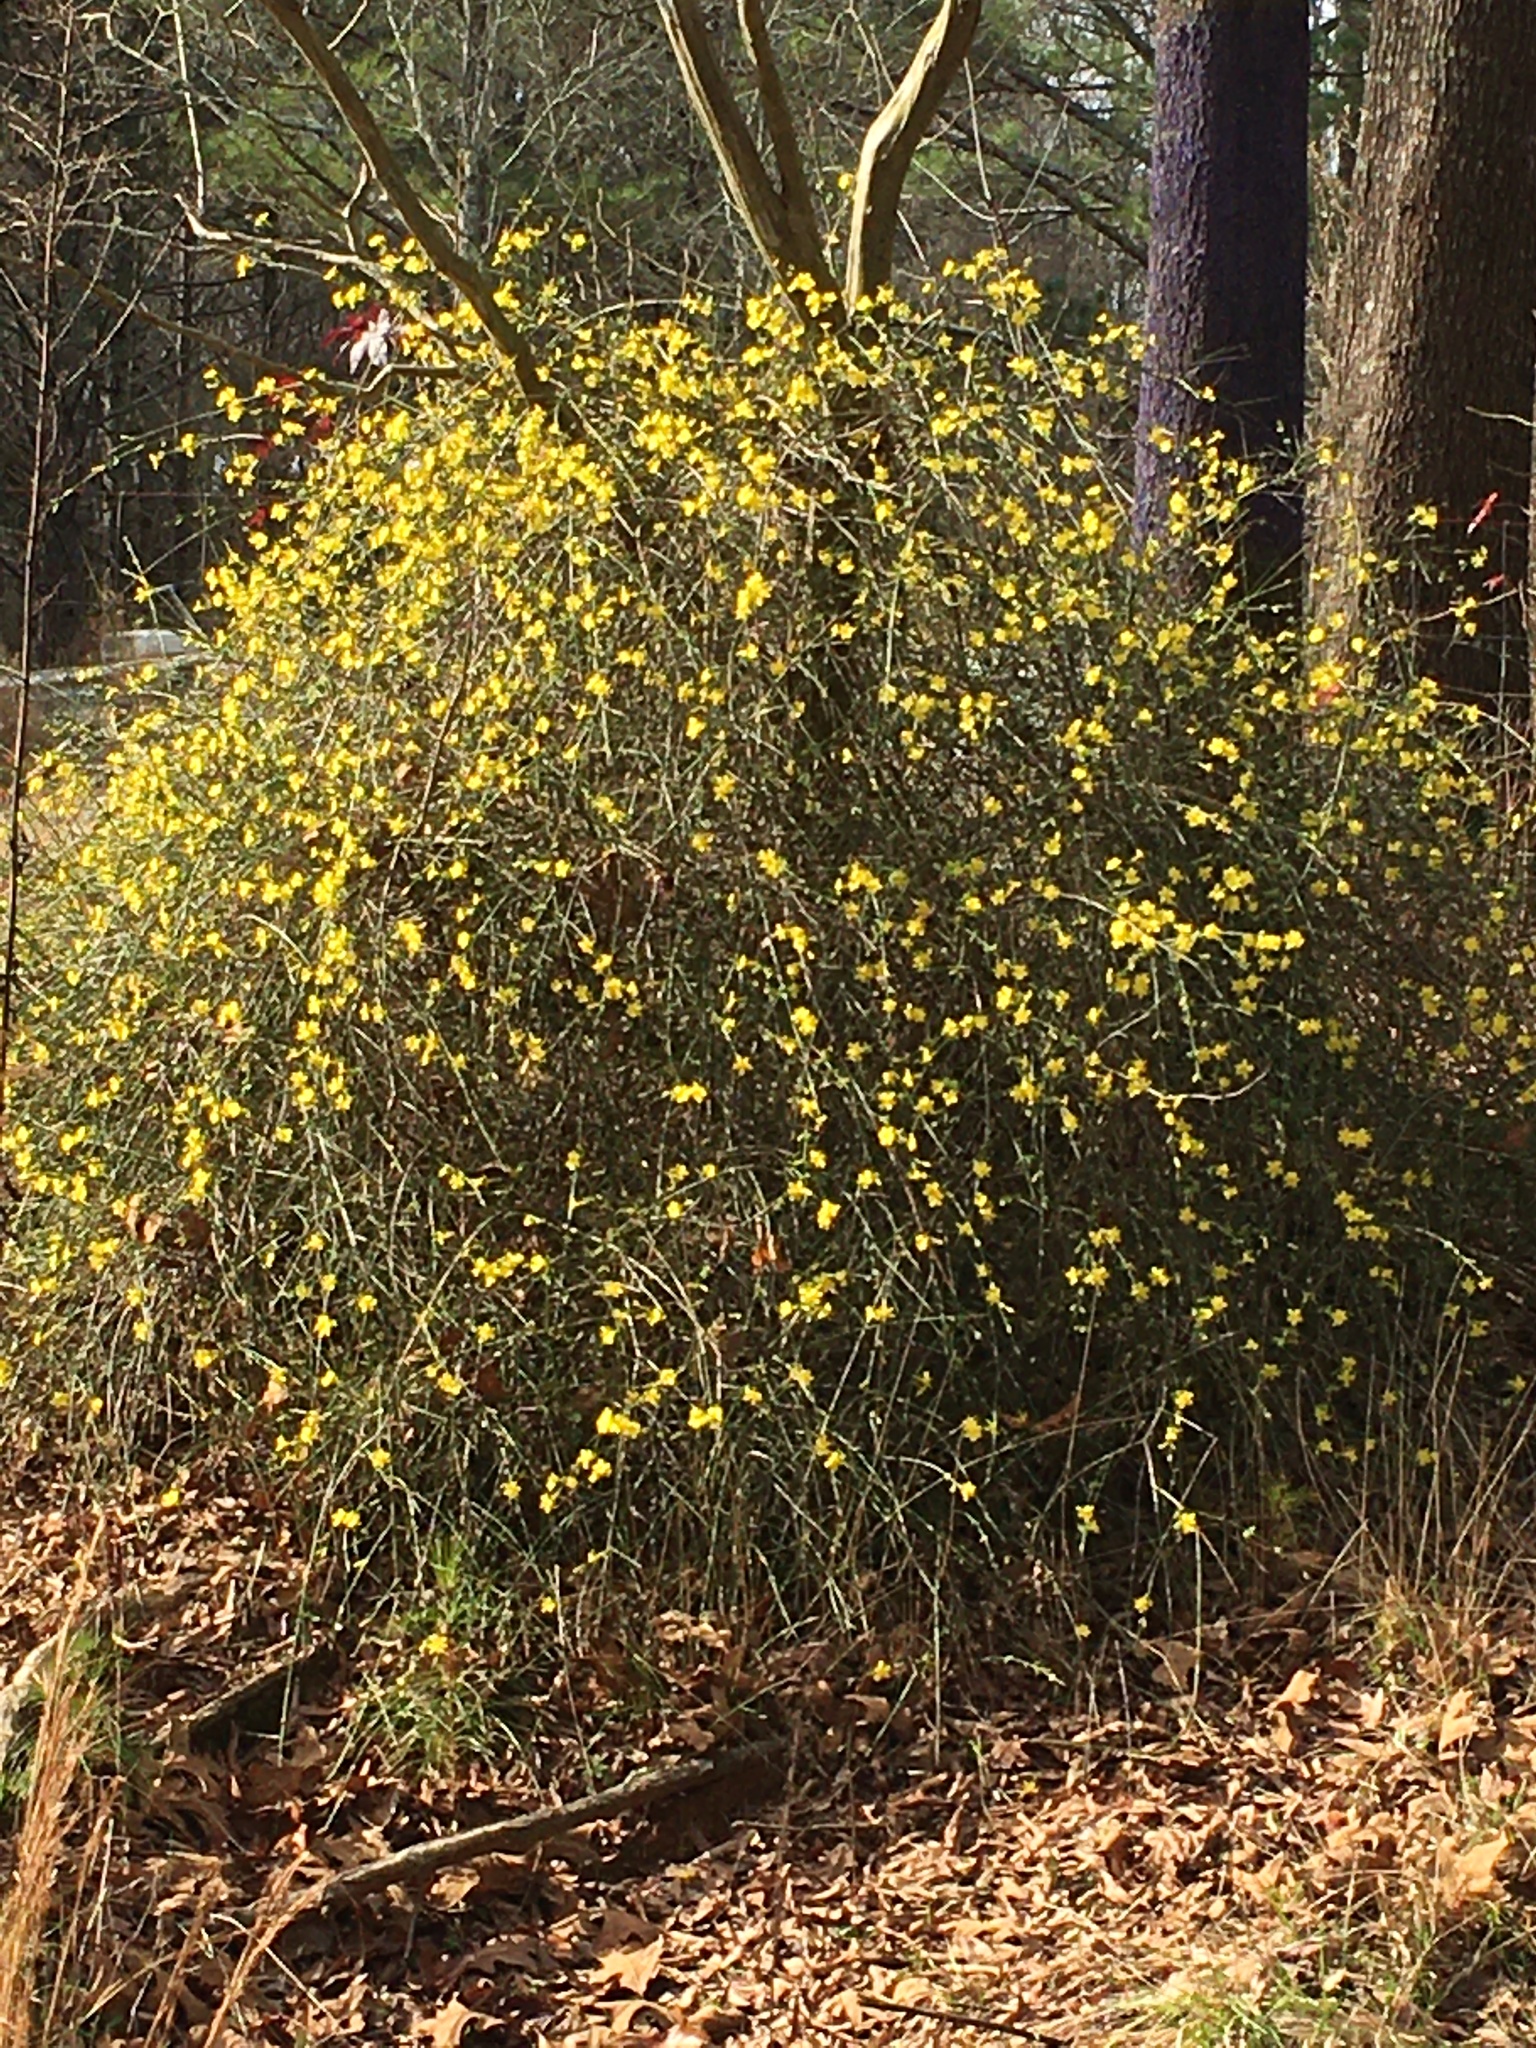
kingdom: Plantae
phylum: Tracheophyta
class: Magnoliopsida
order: Lamiales
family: Oleaceae
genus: Jasminum
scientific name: Jasminum nudiflorum
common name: Winter jasmine
